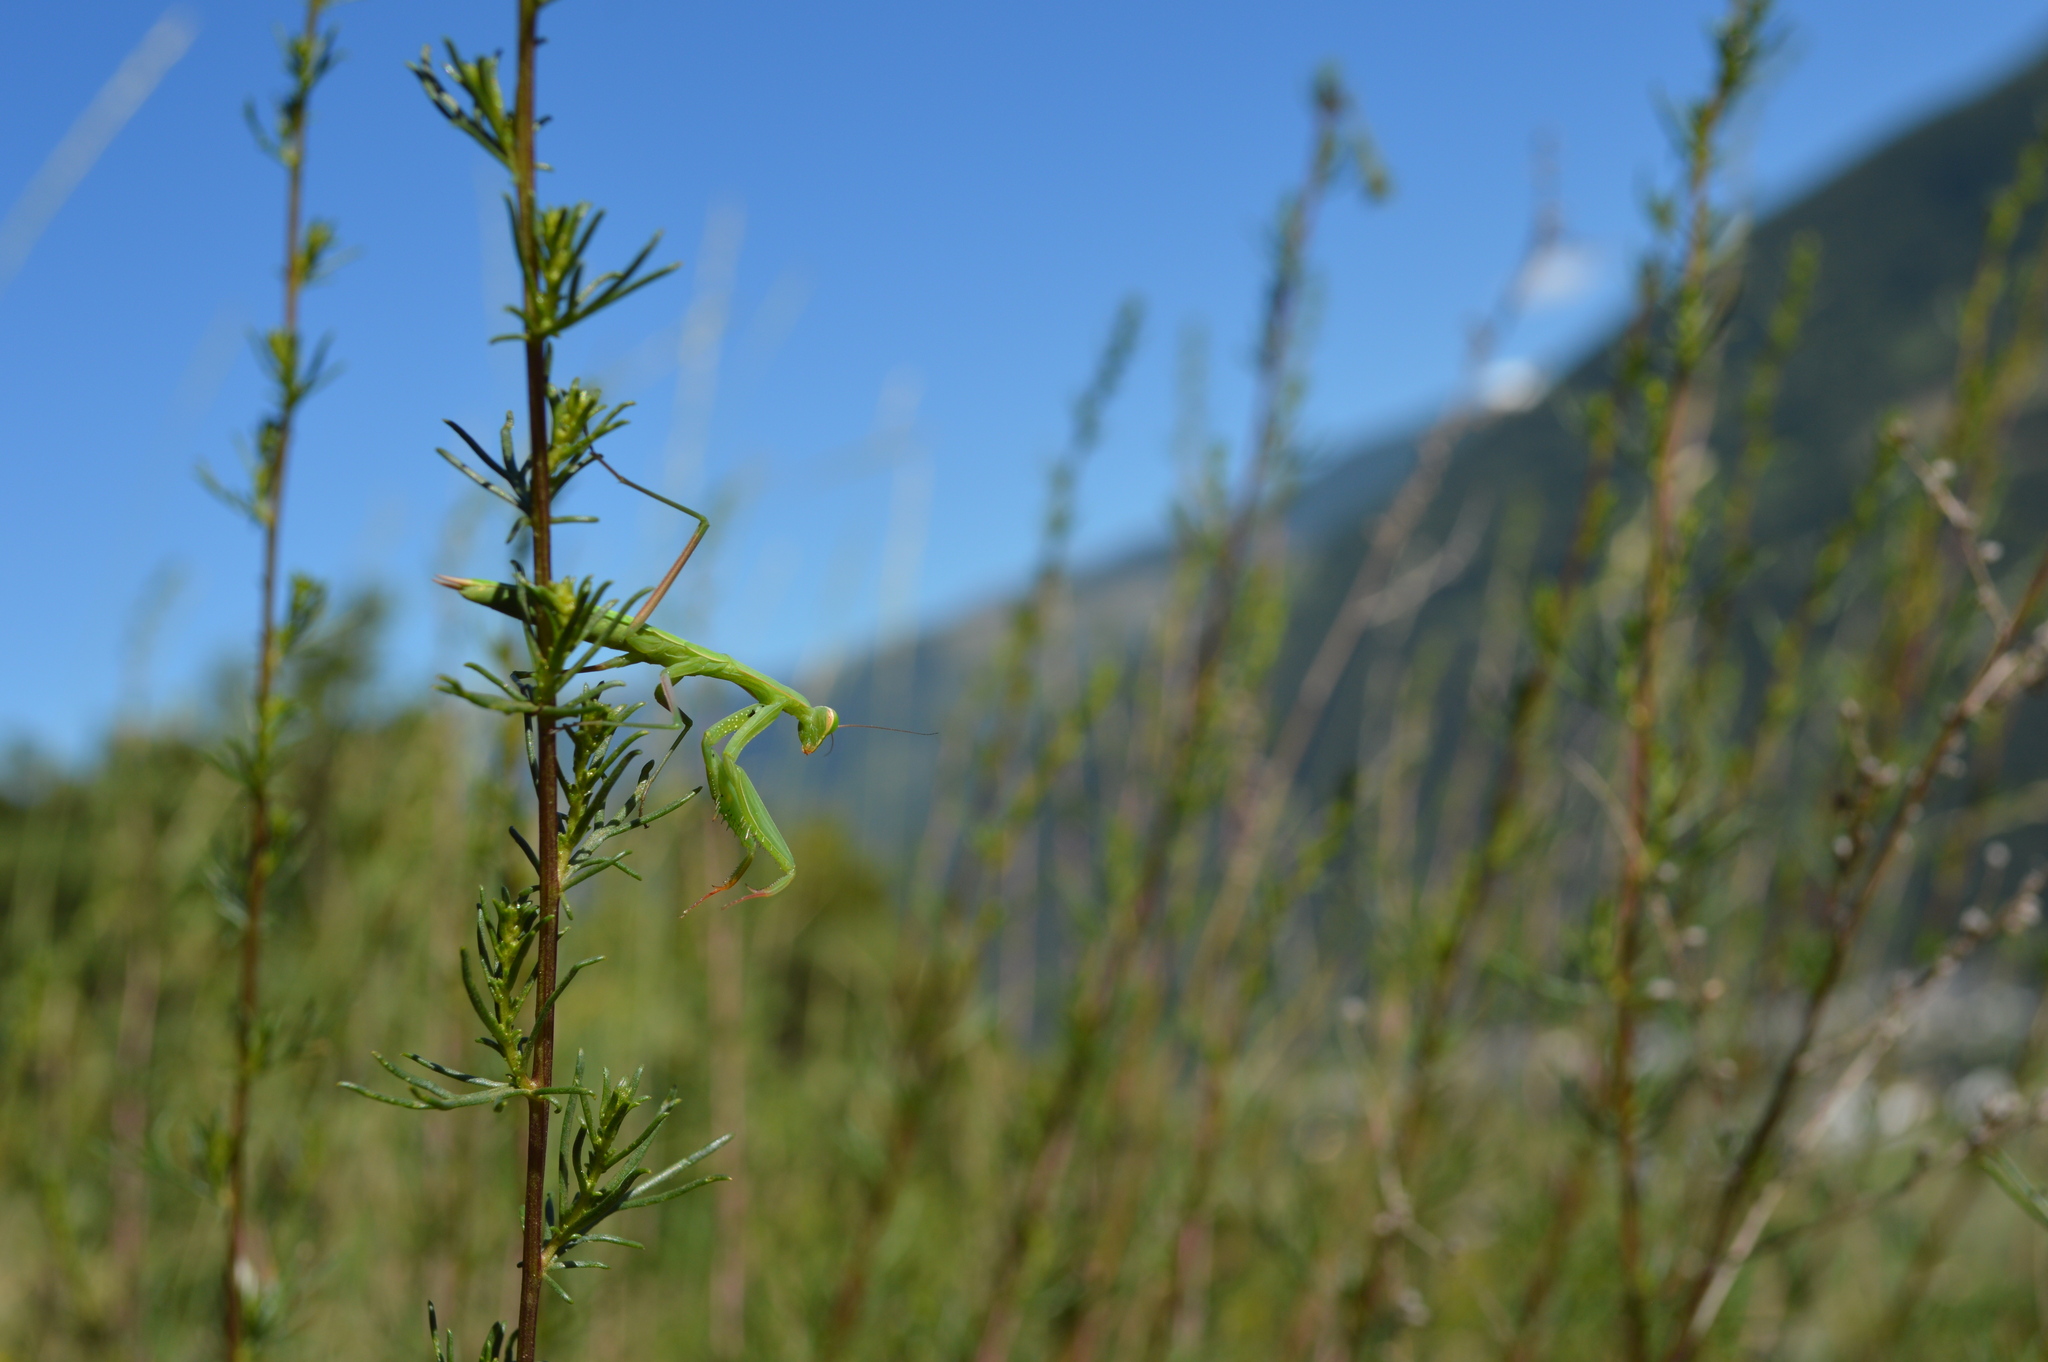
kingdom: Animalia
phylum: Arthropoda
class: Insecta
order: Mantodea
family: Mantidae
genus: Mantis
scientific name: Mantis religiosa
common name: Praying mantis
